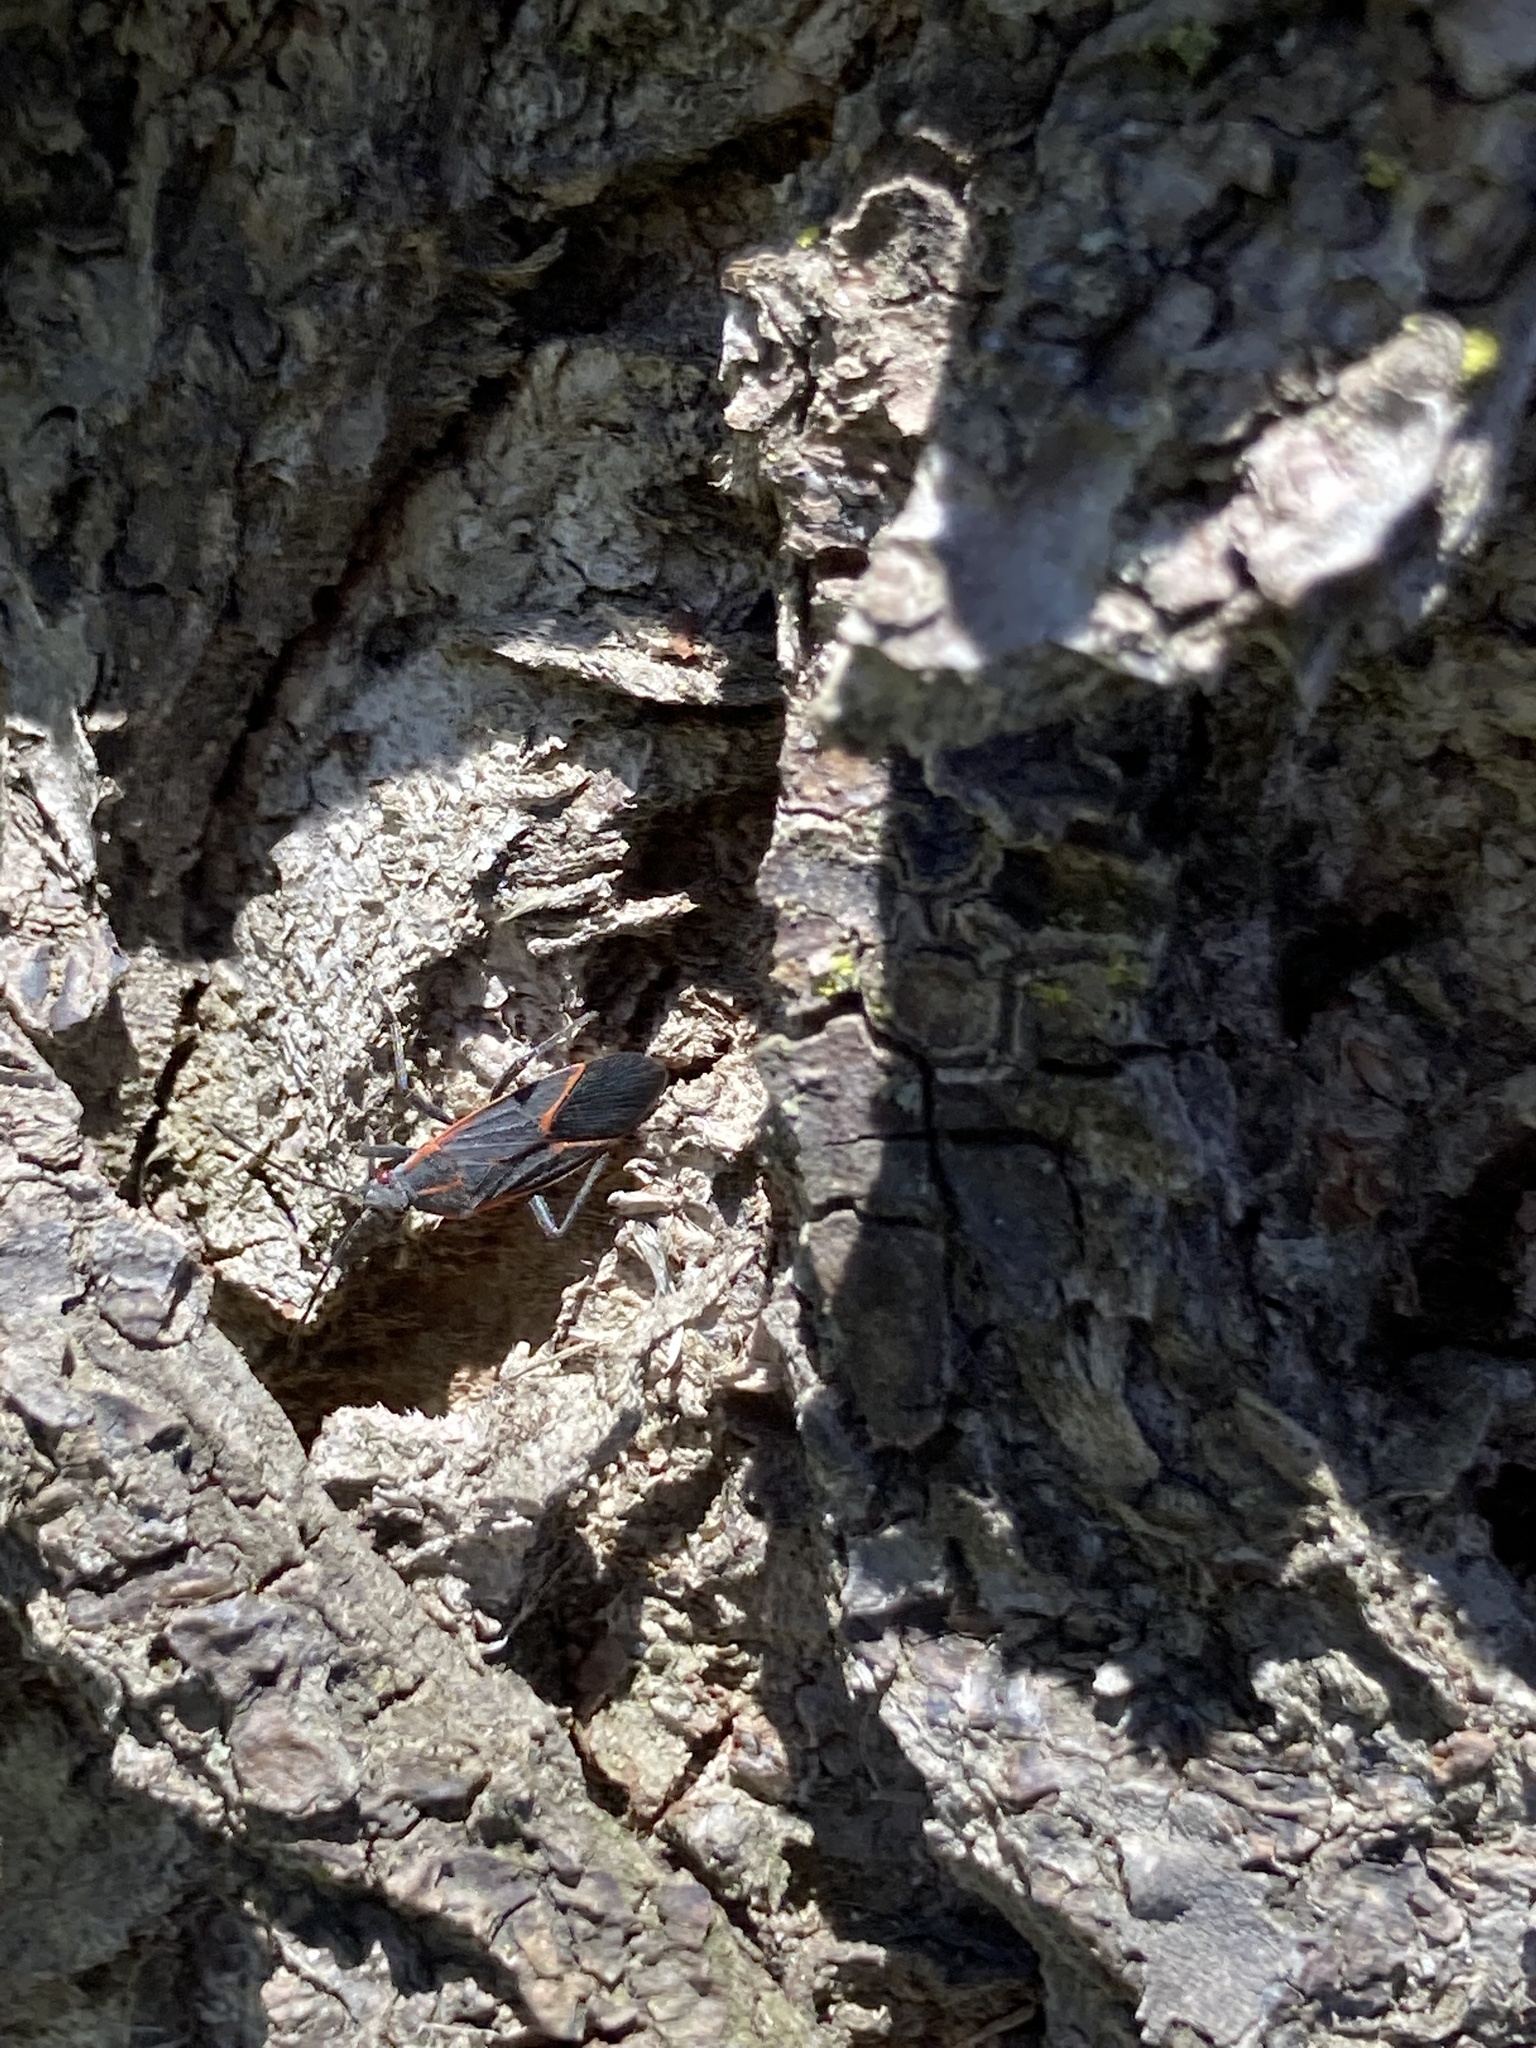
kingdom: Animalia
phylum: Arthropoda
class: Insecta
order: Hemiptera
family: Rhopalidae
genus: Boisea
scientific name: Boisea trivittata
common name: Boxelder bug
